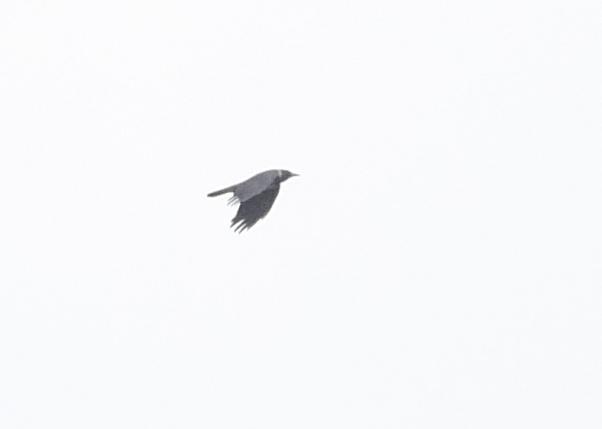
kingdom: Animalia
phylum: Chordata
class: Aves
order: Passeriformes
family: Corvidae
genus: Corvus
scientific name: Corvus cornix
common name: Hooded crow
